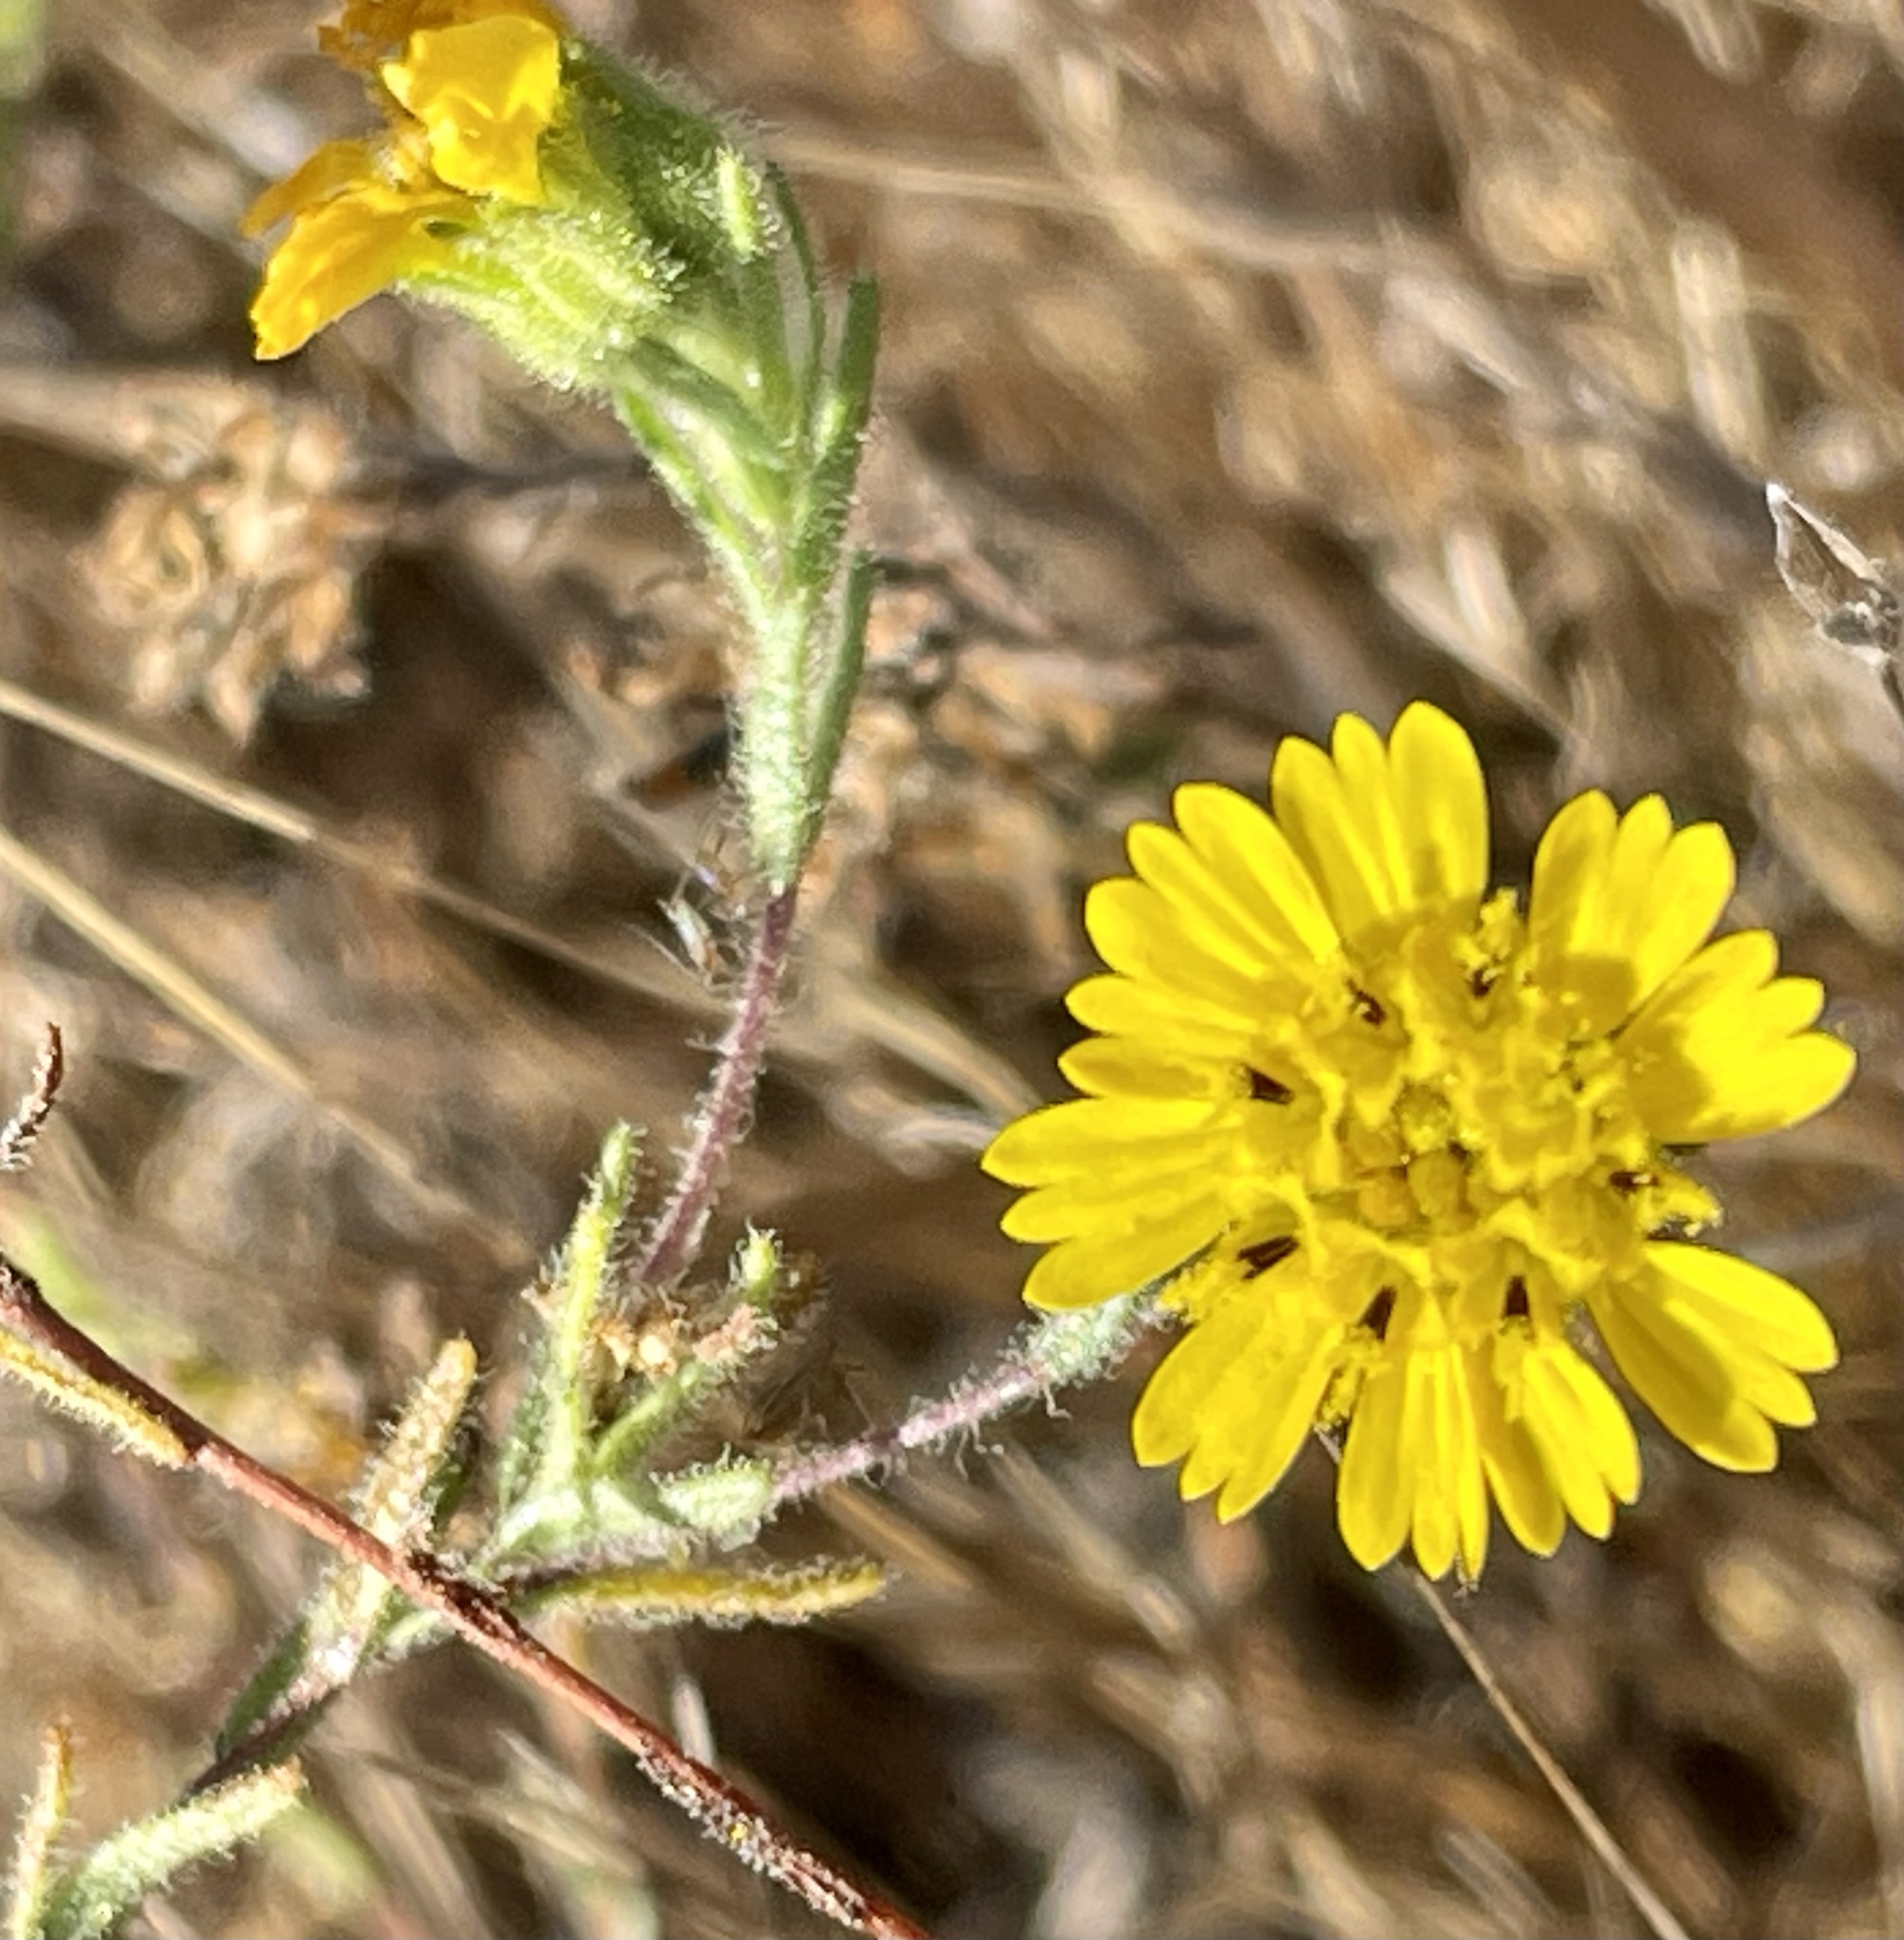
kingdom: Plantae
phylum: Tracheophyta
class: Magnoliopsida
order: Asterales
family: Asteraceae
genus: Deinandra
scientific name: Deinandra corymbosa
